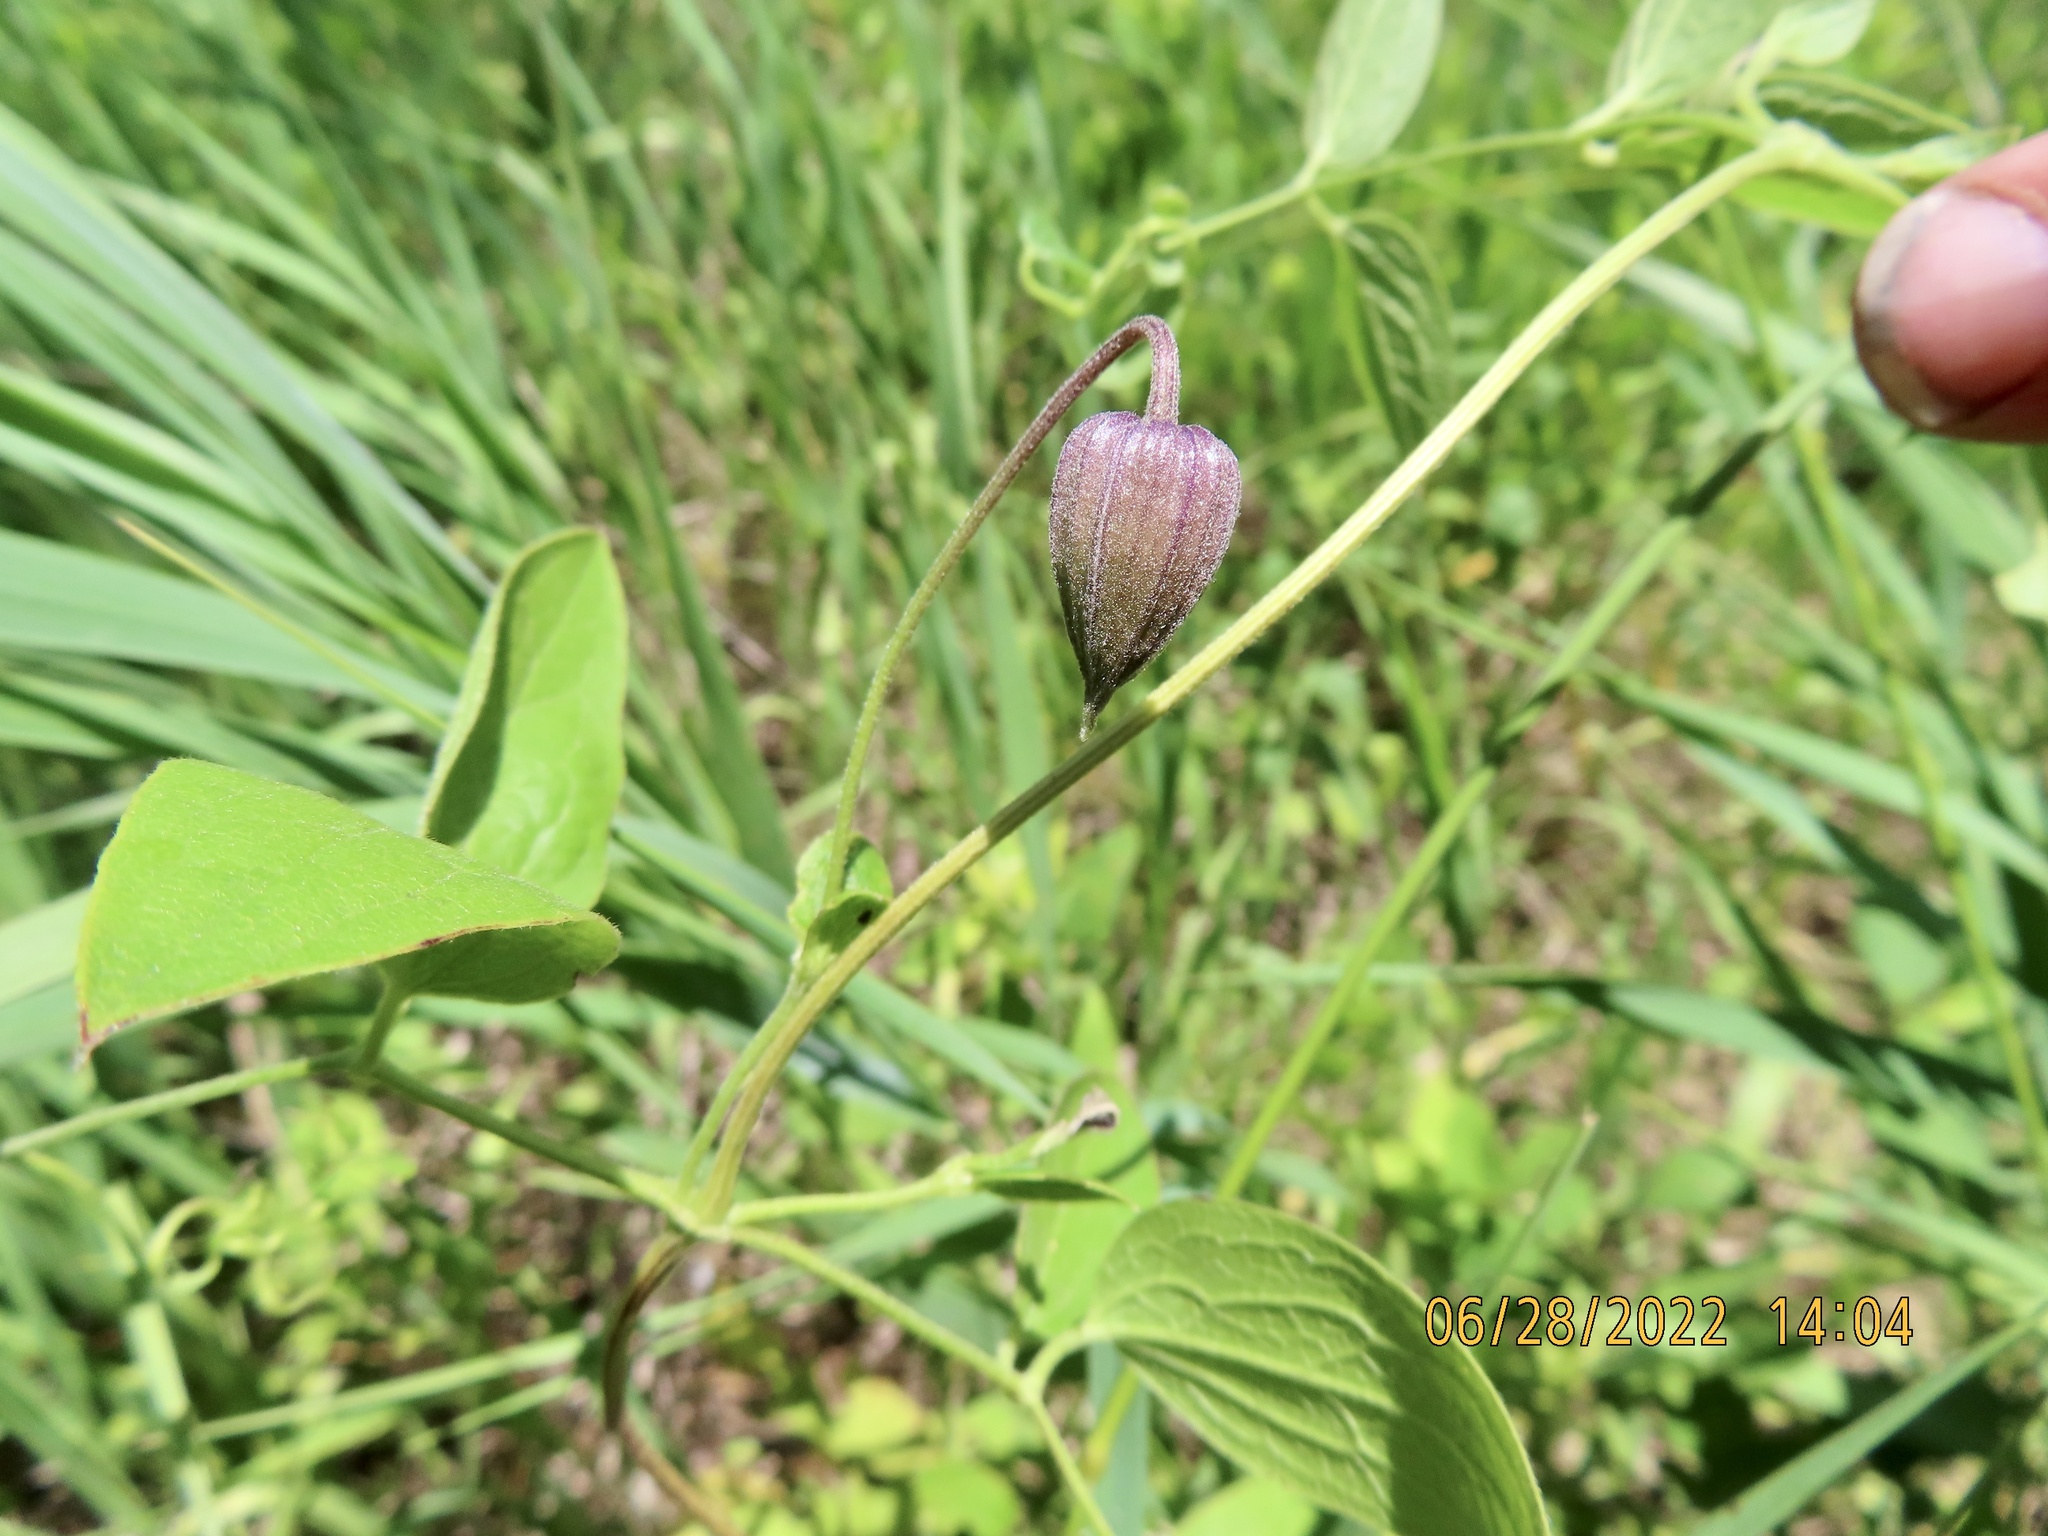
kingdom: Plantae
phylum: Tracheophyta
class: Magnoliopsida
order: Ranunculales
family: Ranunculaceae
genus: Clematis
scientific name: Clematis pitcheri
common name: Bellflower clematis
